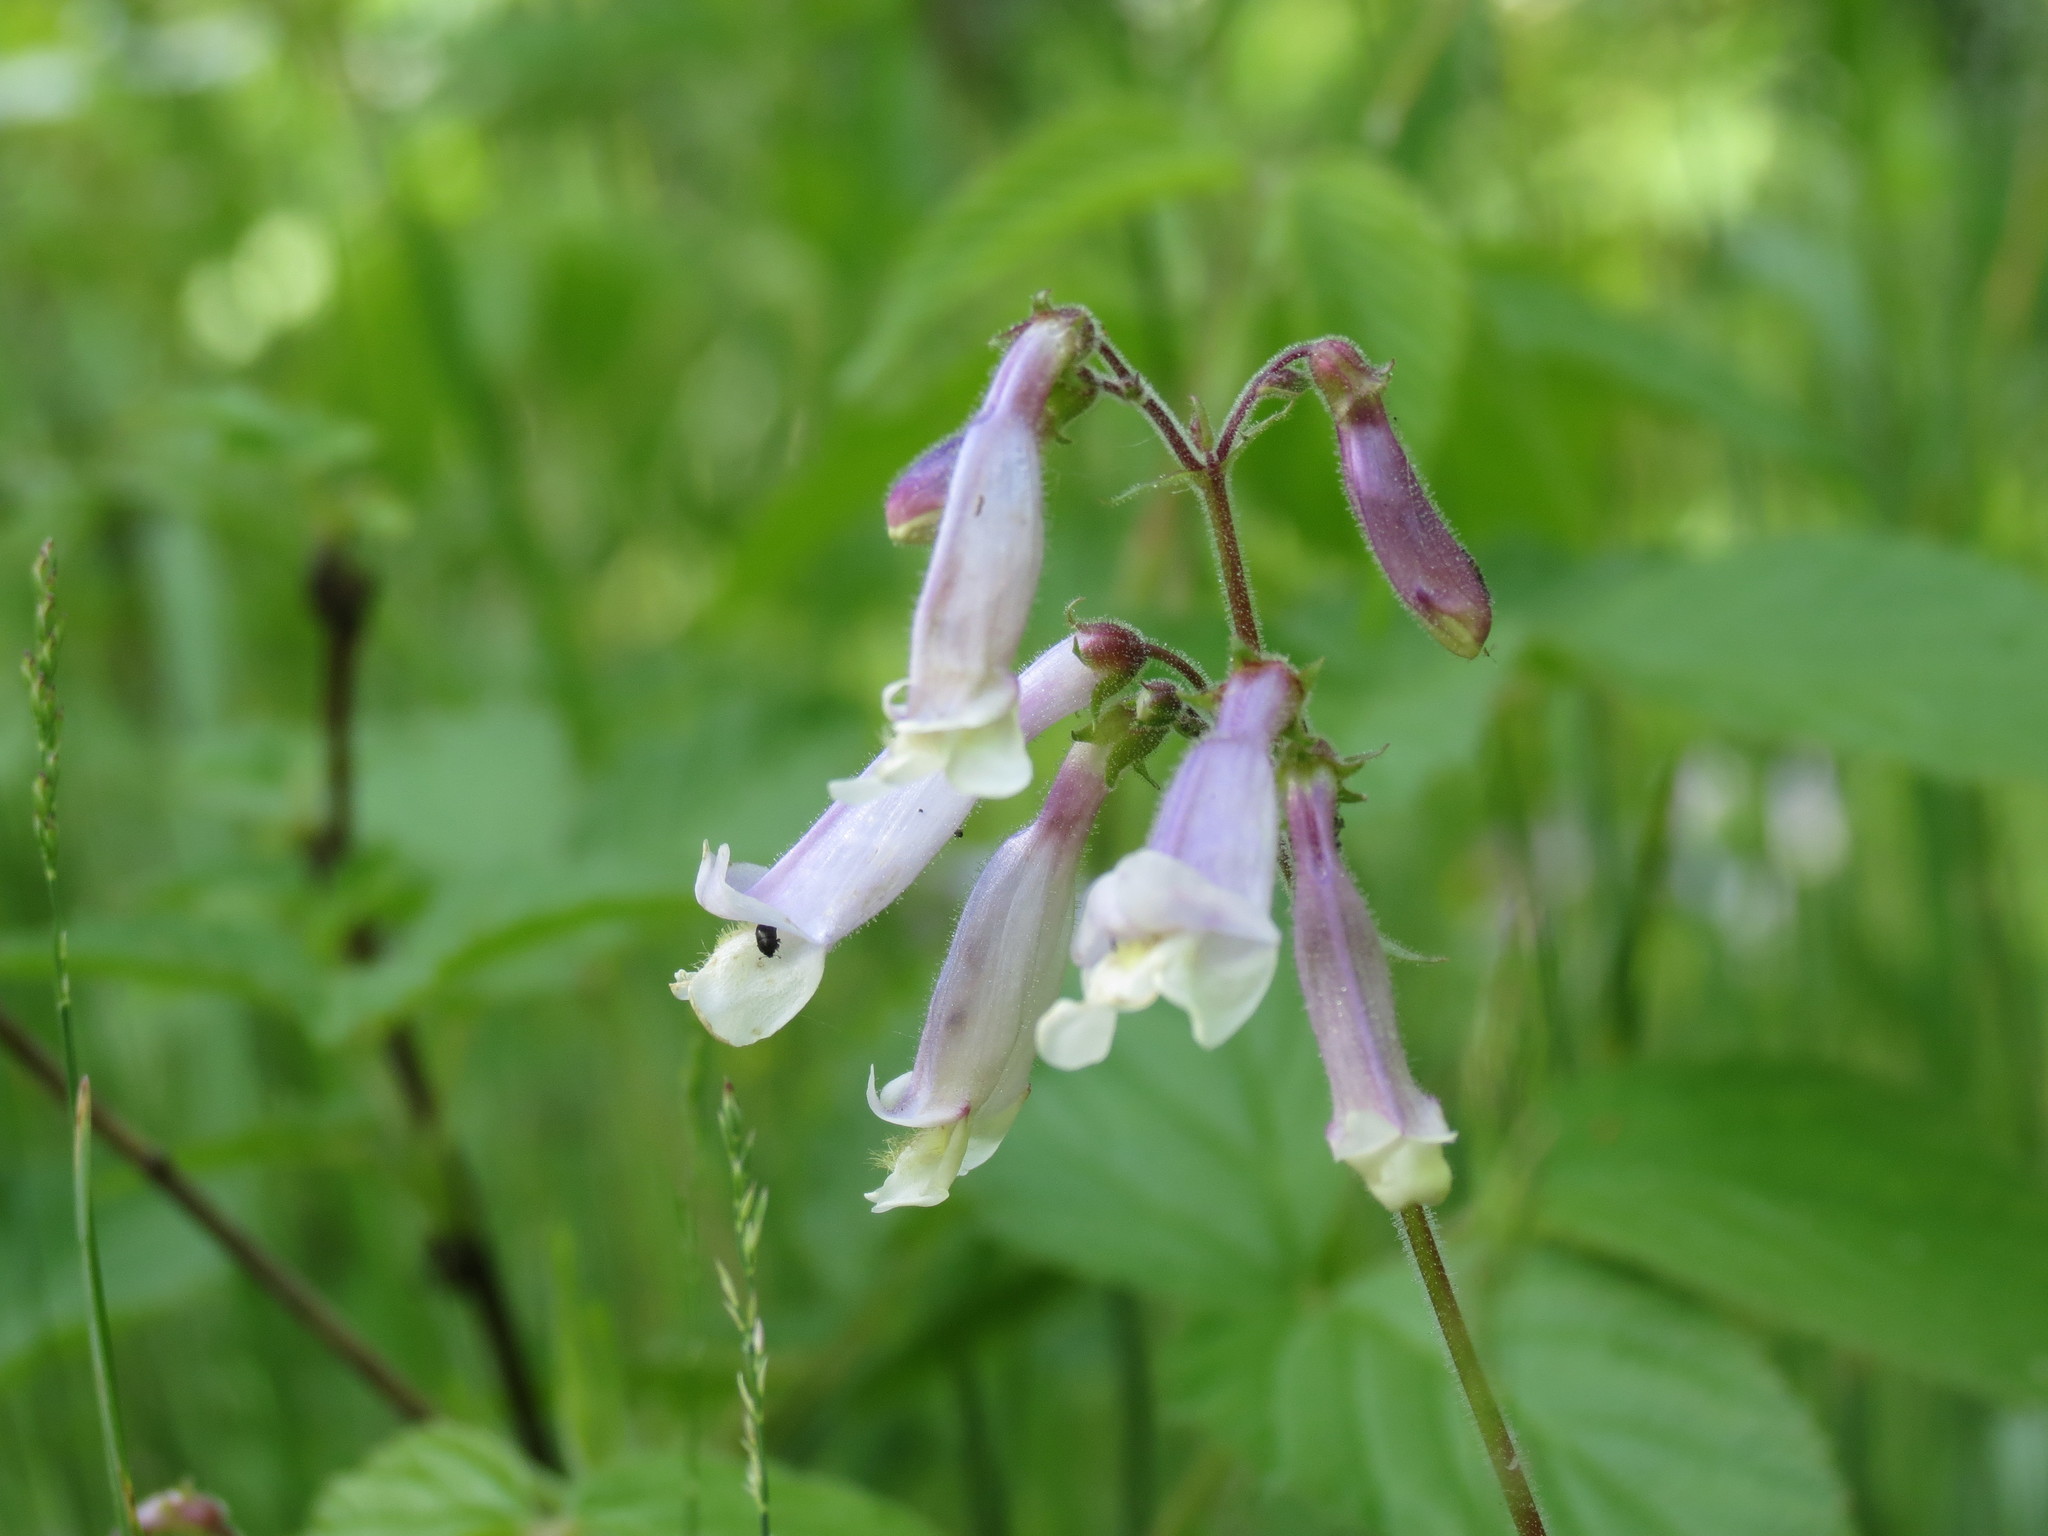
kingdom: Plantae
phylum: Tracheophyta
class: Magnoliopsida
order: Lamiales
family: Plantaginaceae
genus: Penstemon
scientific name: Penstemon hirsutus
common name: Hairy beardtongue
